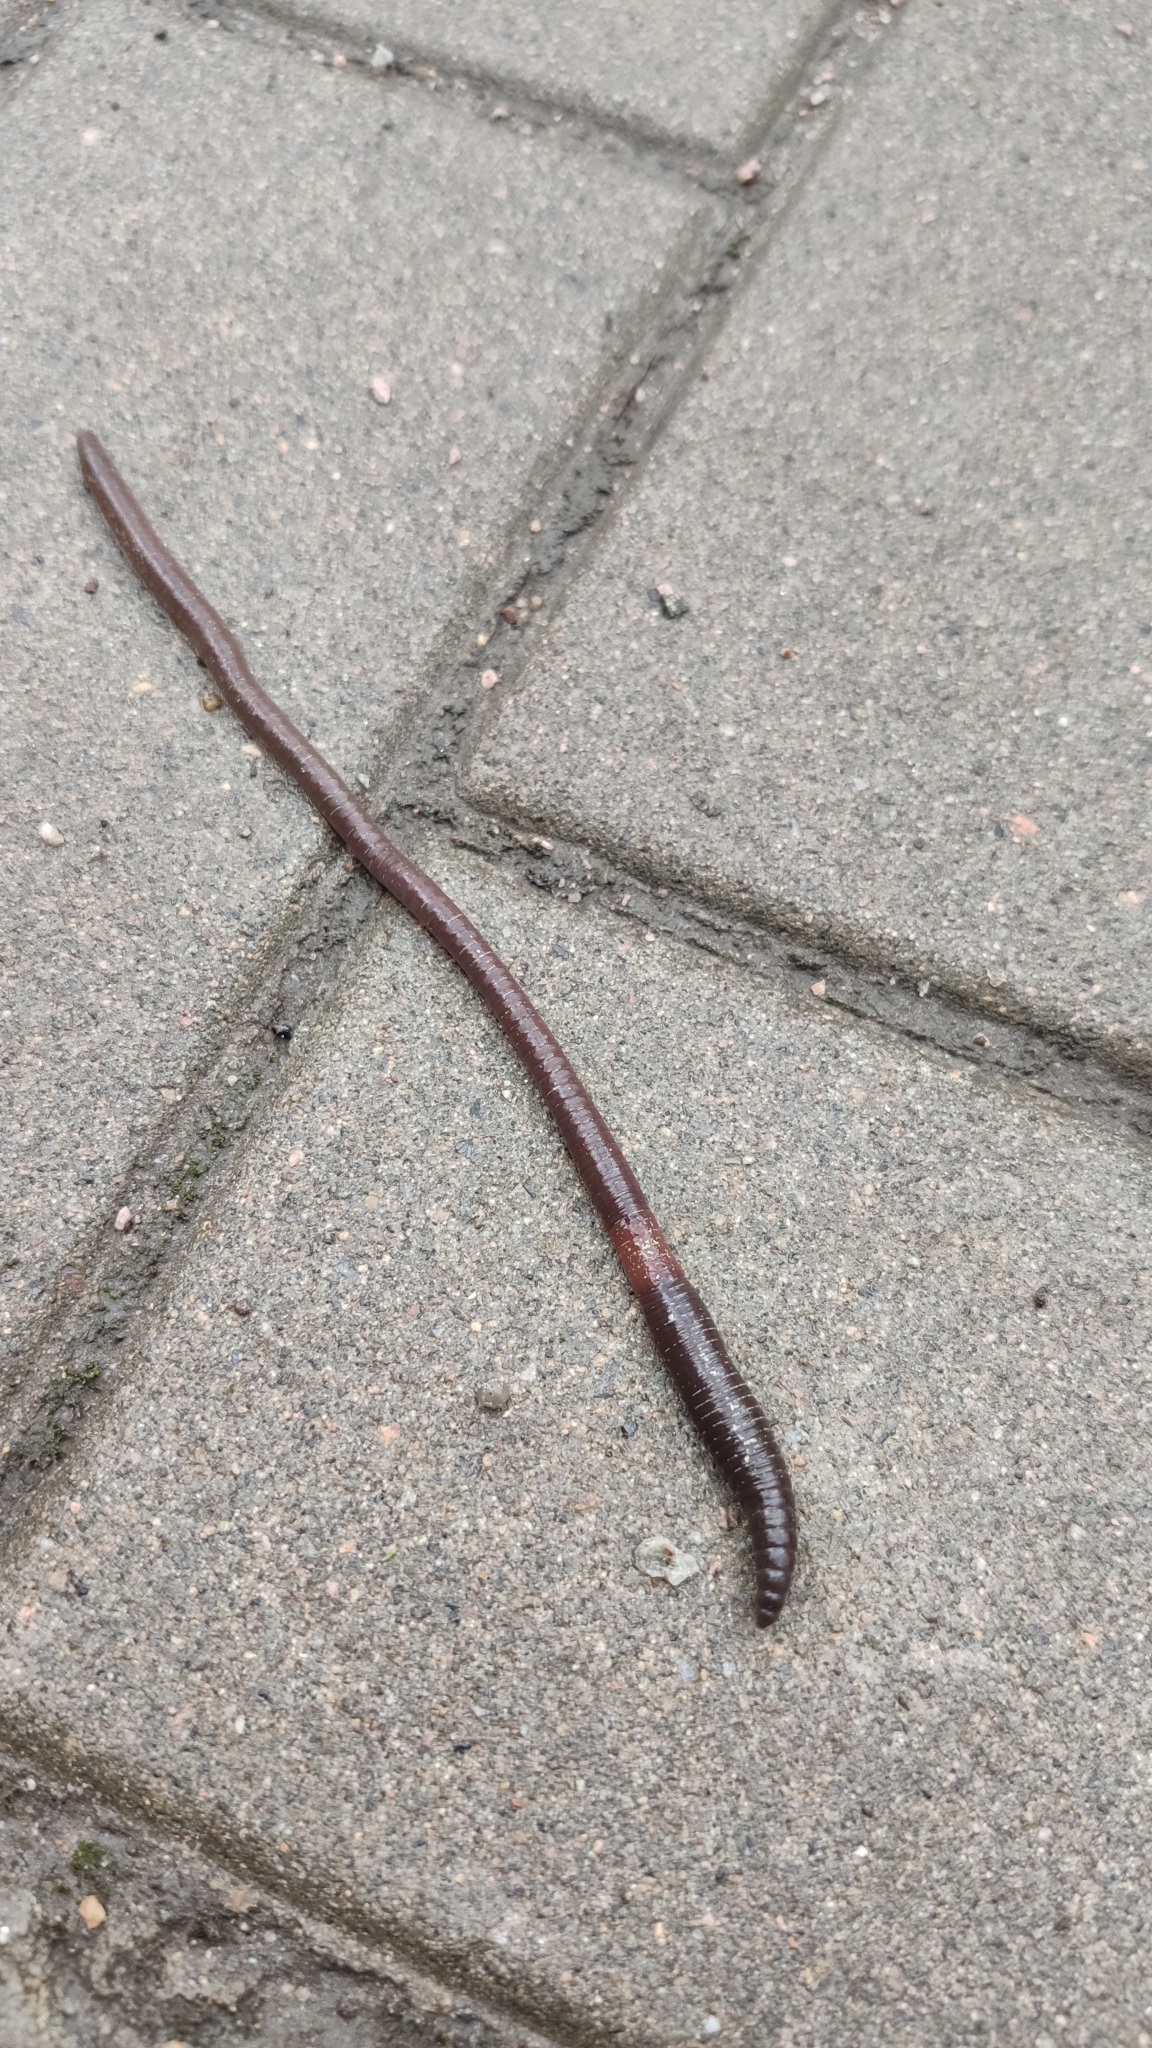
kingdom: Animalia
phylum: Annelida
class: Clitellata
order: Crassiclitellata
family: Lumbricidae
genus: Lumbricus
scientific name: Lumbricus rubellus
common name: Red worm
